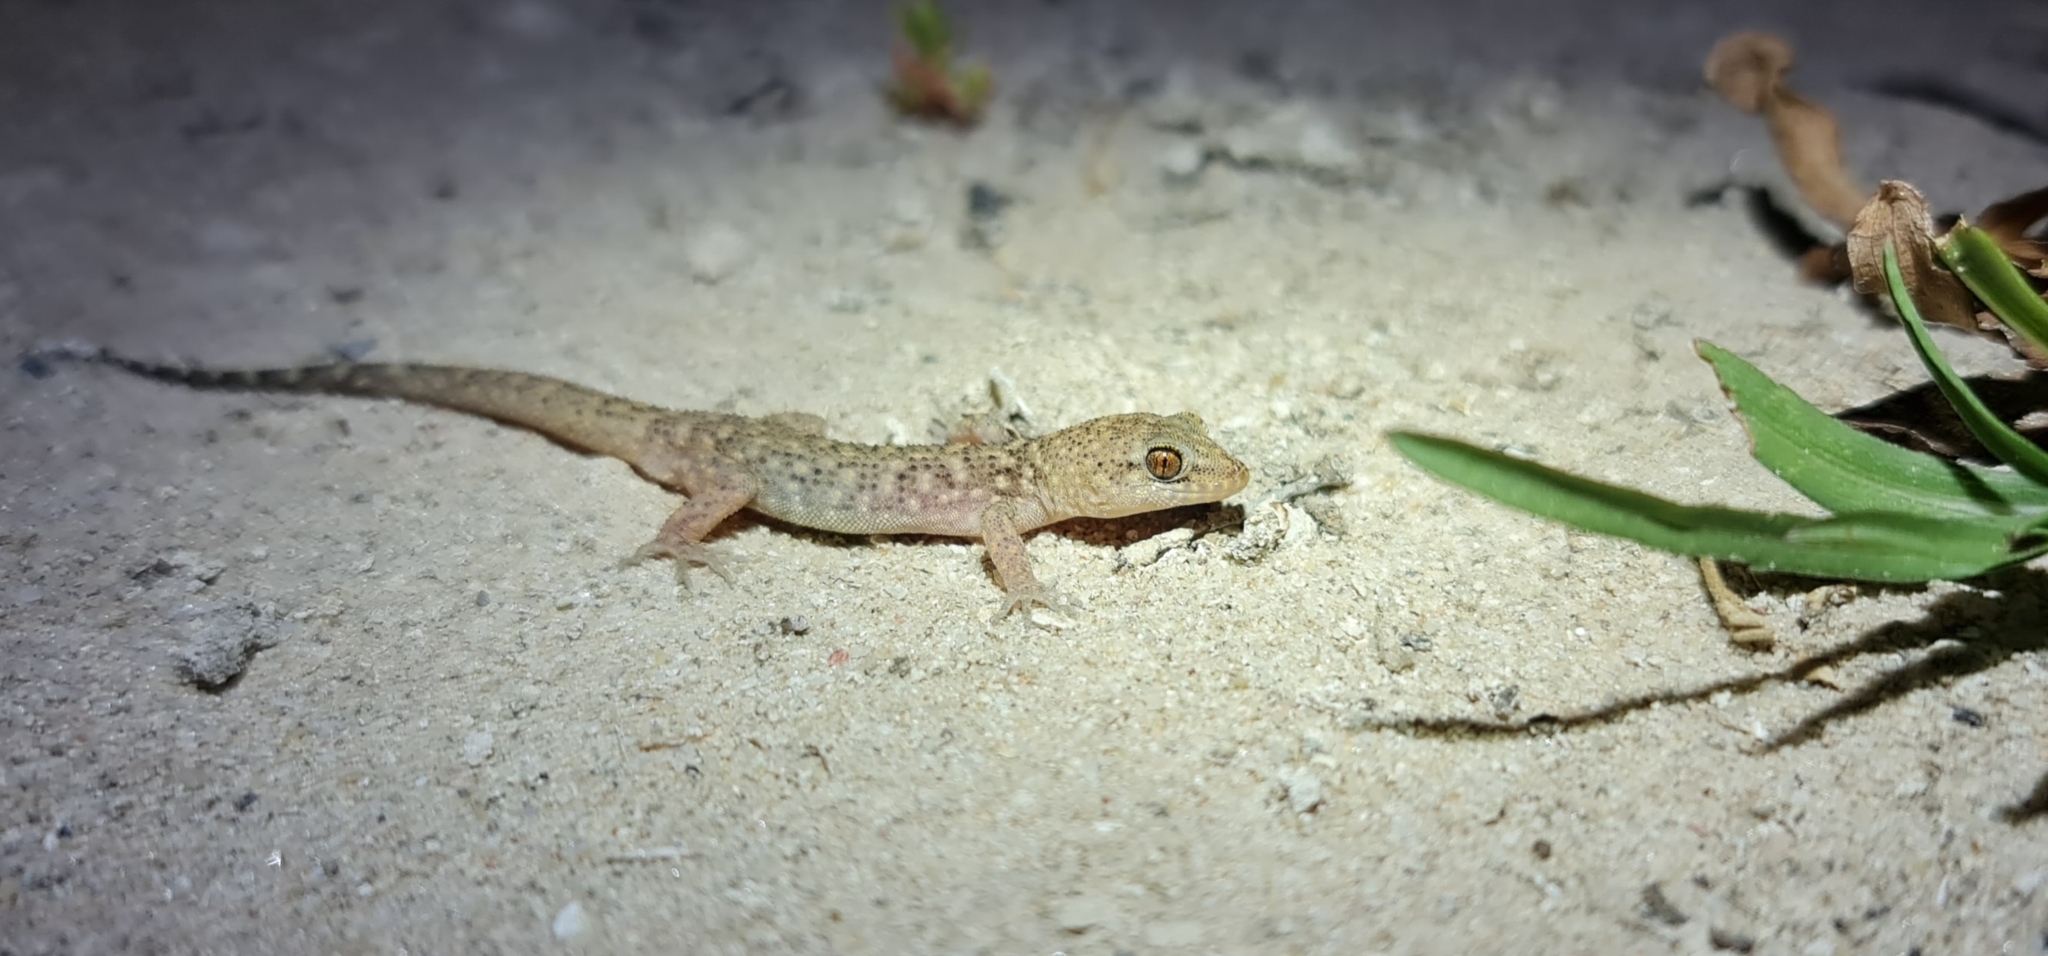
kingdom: Animalia
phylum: Chordata
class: Squamata
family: Gekkonidae
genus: Heteronotia
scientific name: Heteronotia binoei
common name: Bynoe's gecko
